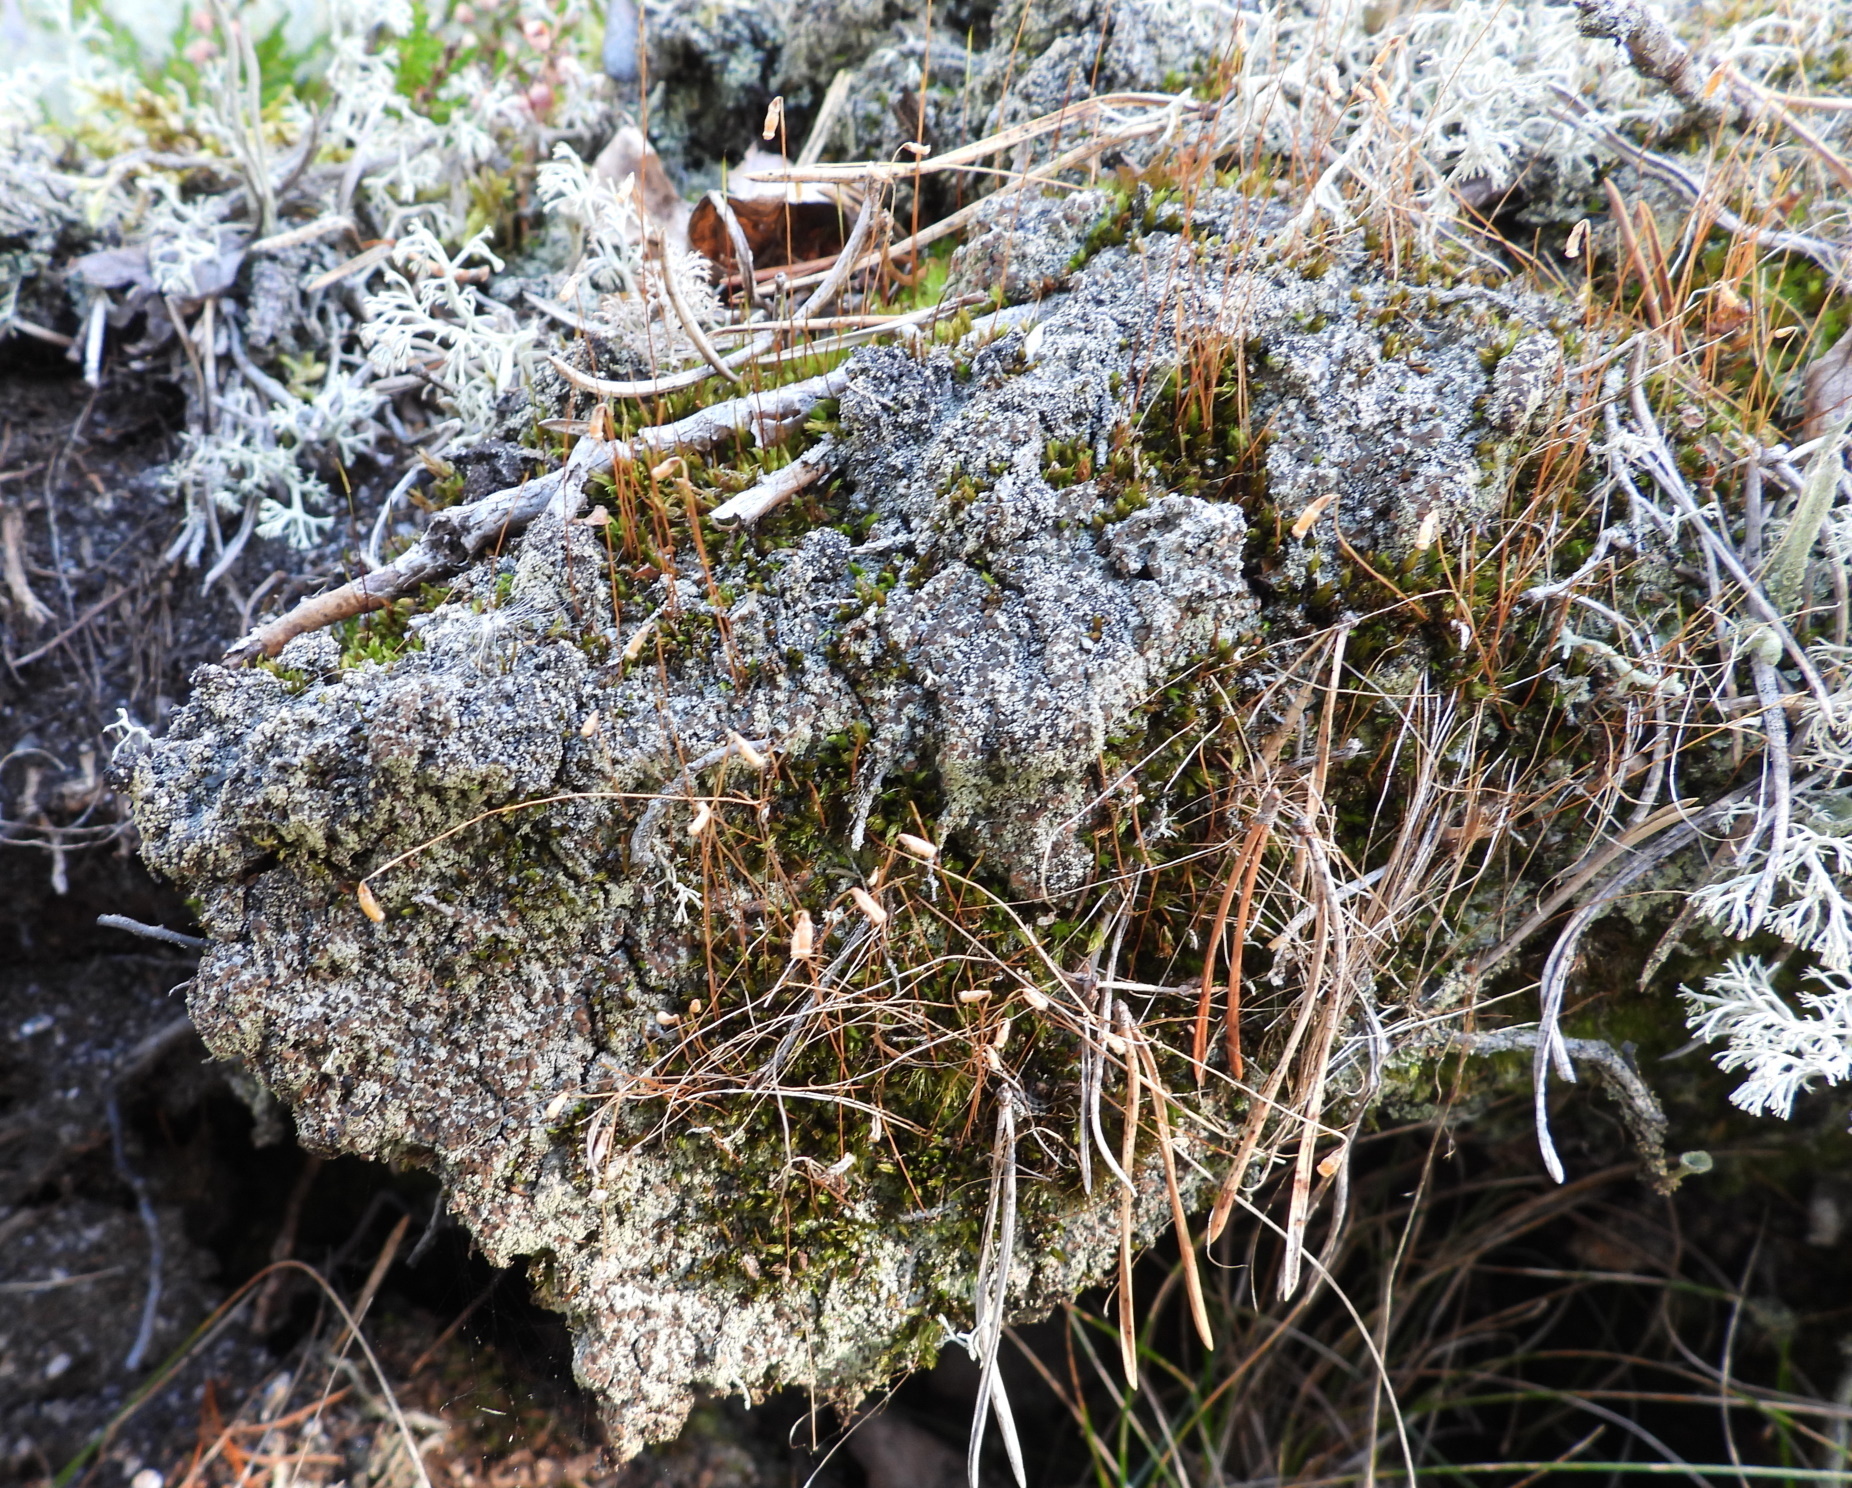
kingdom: Fungi
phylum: Ascomycota
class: Lecanoromycetes
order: Baeomycetales
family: Trapeliaceae
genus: Trapeliopsis
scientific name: Trapeliopsis granulosa
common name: Granular mottled-disk lichen
